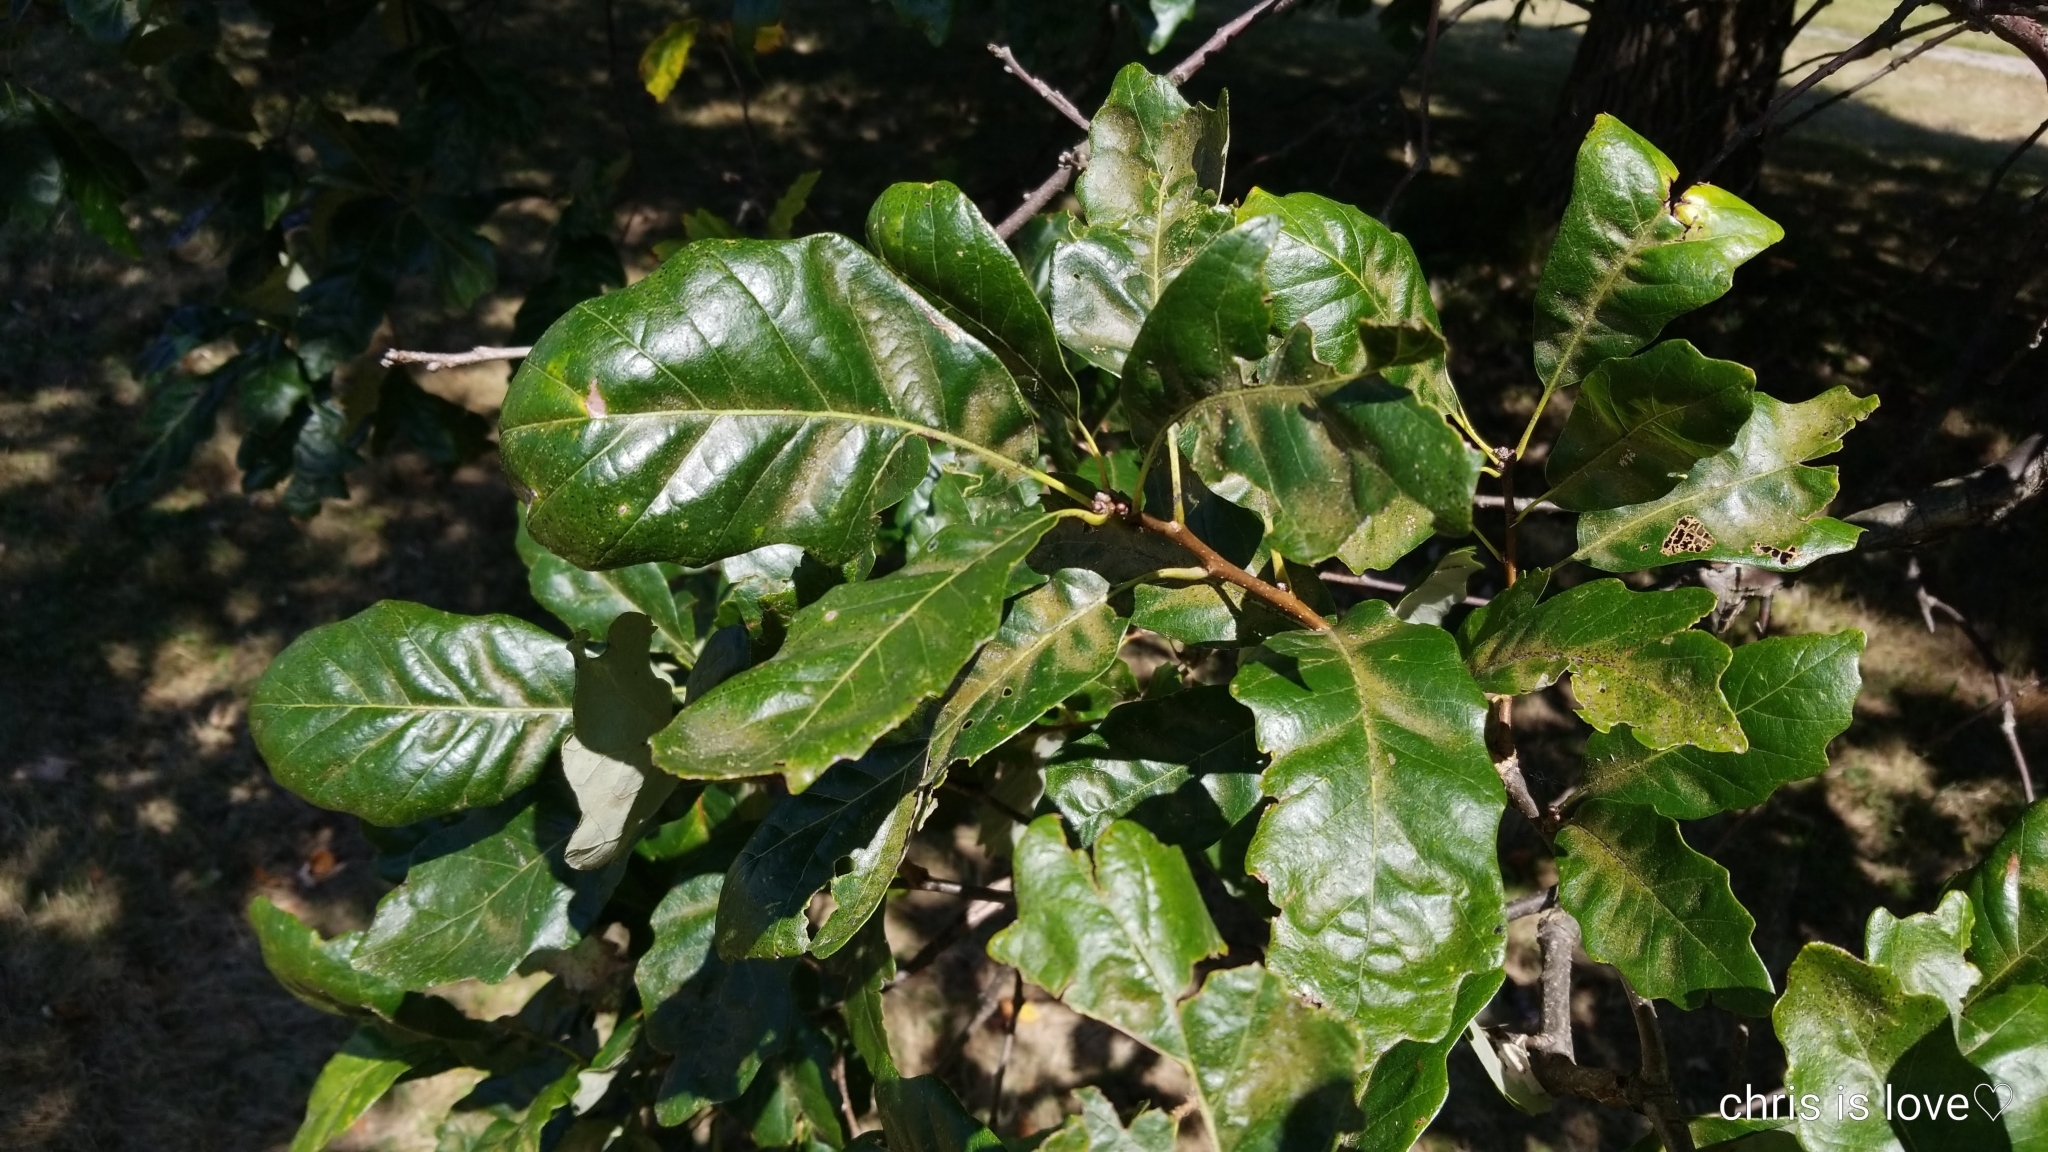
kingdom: Plantae
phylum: Tracheophyta
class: Magnoliopsida
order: Fagales
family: Fagaceae
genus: Quercus
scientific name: Quercus bicolor
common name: Swamp white oak
